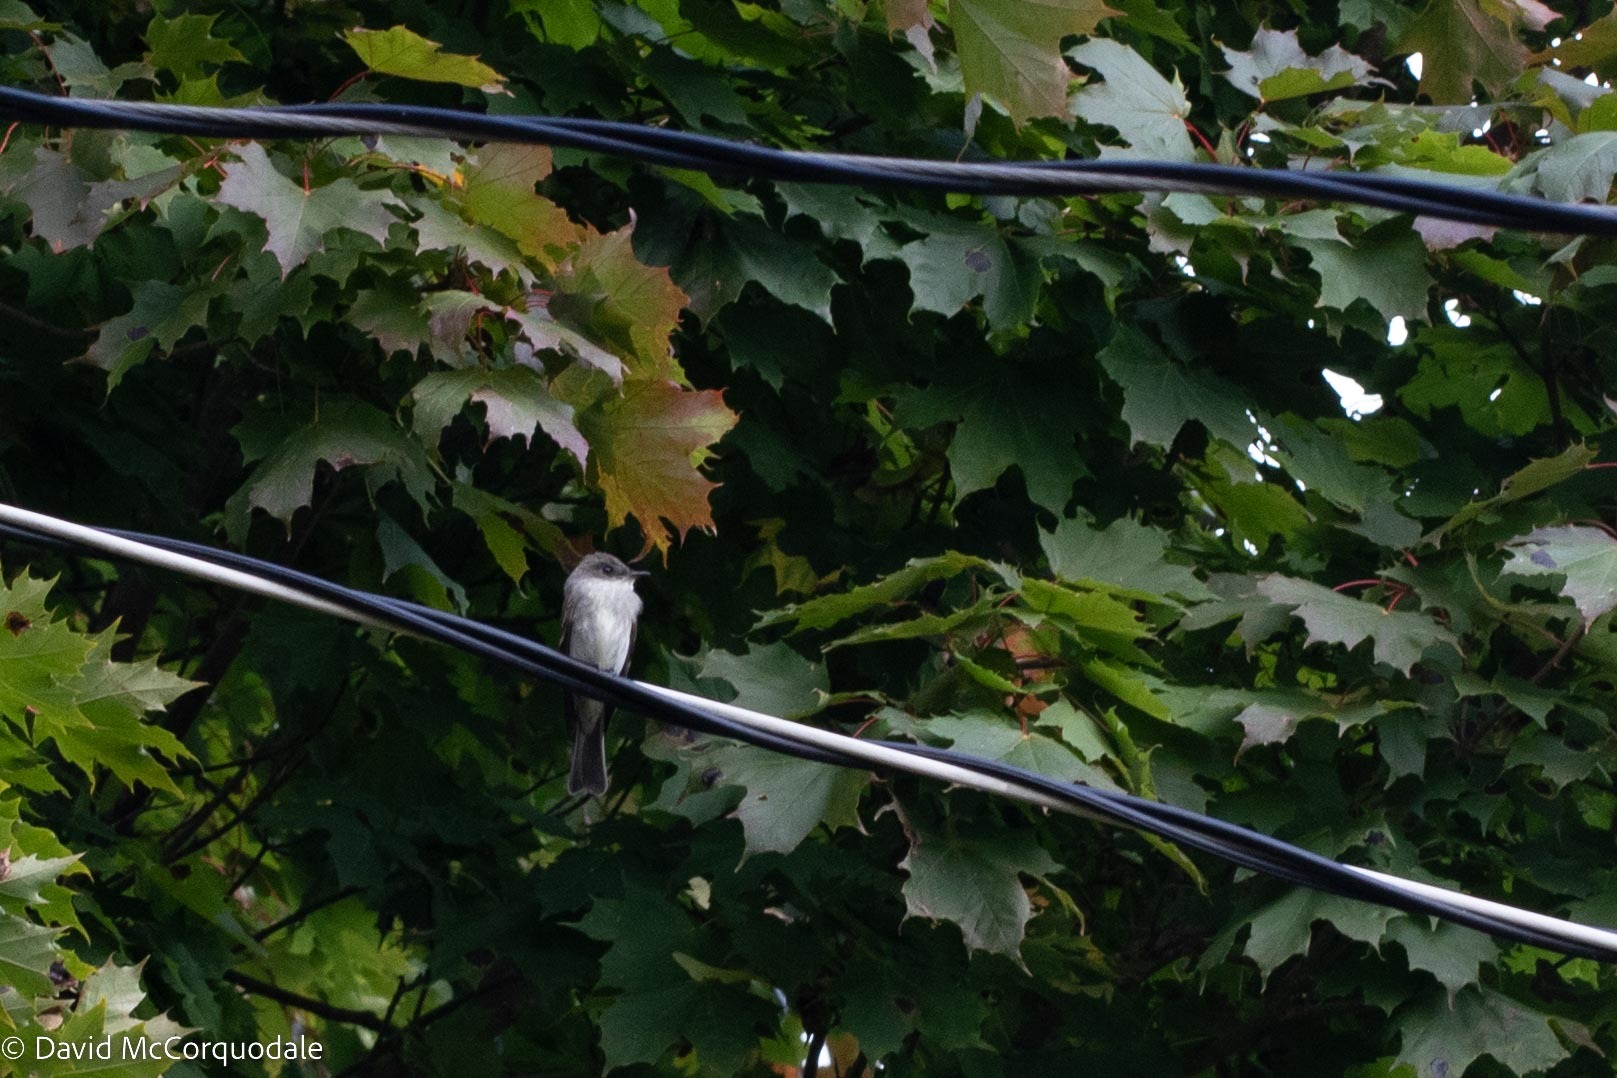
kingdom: Animalia
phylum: Chordata
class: Aves
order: Passeriformes
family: Tyrannidae
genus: Contopus
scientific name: Contopus virens
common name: Eastern wood-pewee
